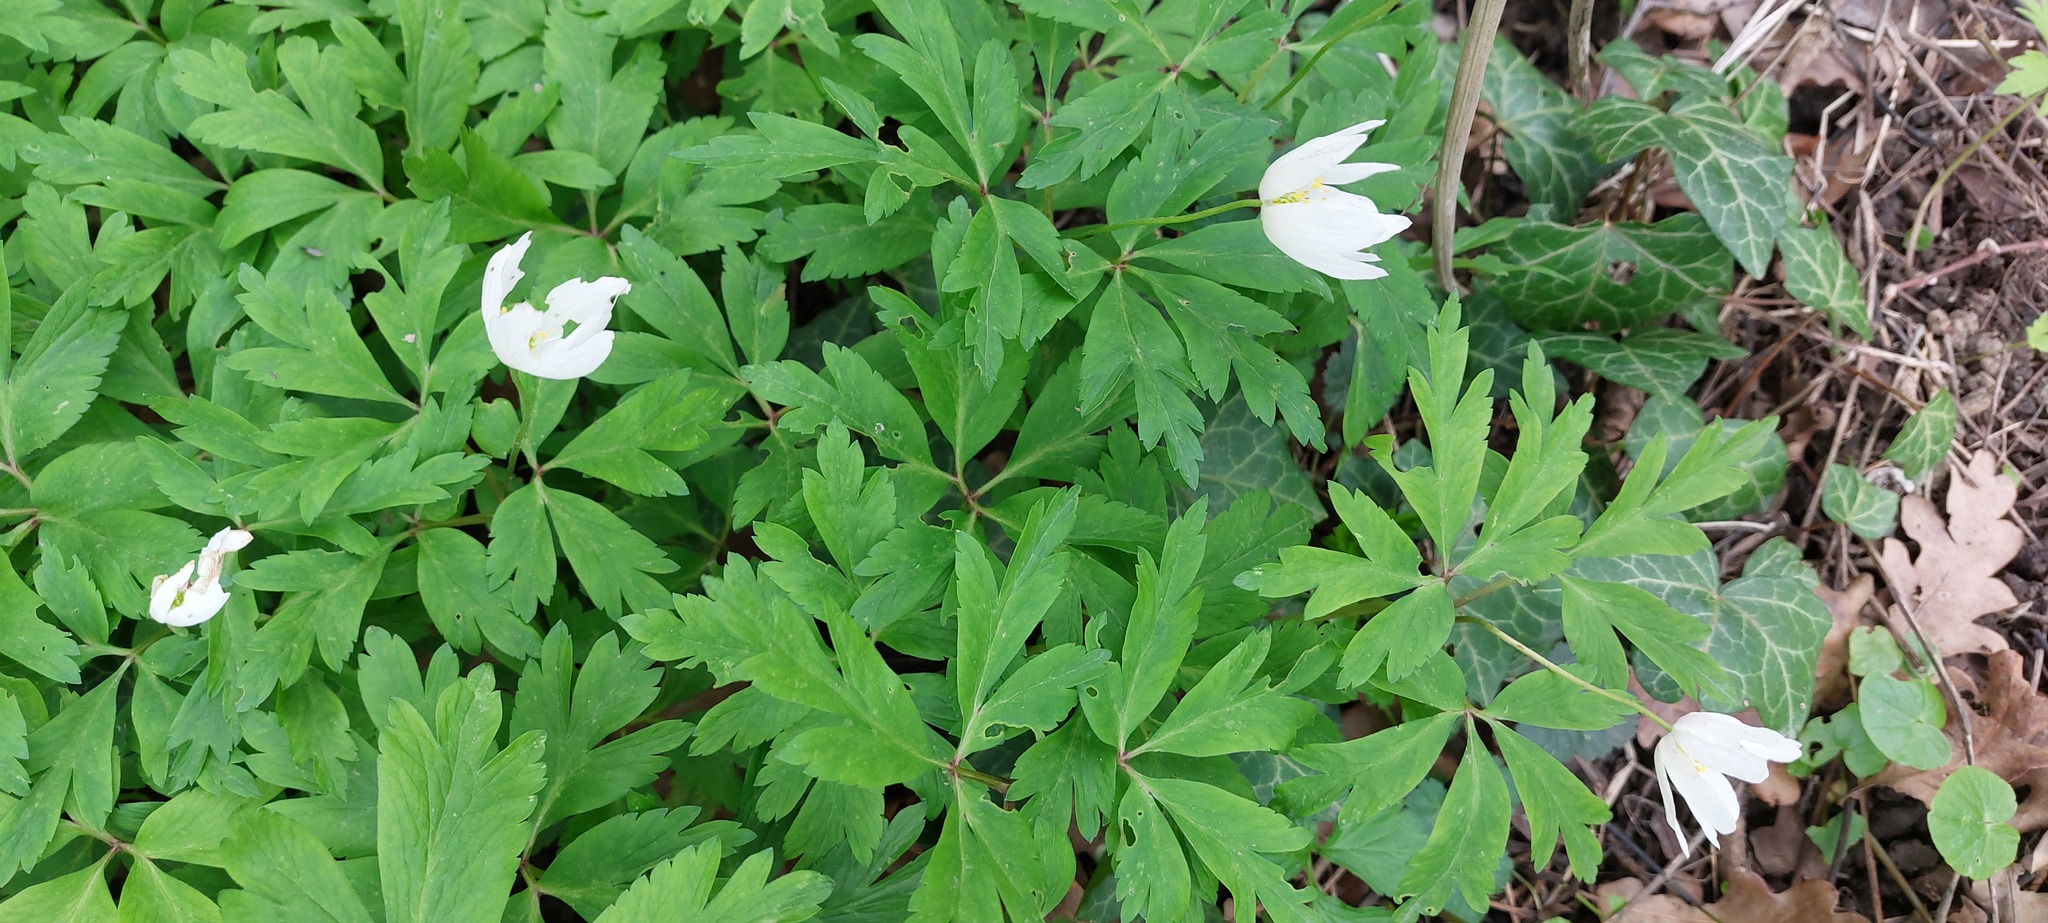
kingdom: Plantae
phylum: Tracheophyta
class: Magnoliopsida
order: Ranunculales
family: Ranunculaceae
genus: Anemone
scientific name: Anemone nemorosa
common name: Wood anemone
